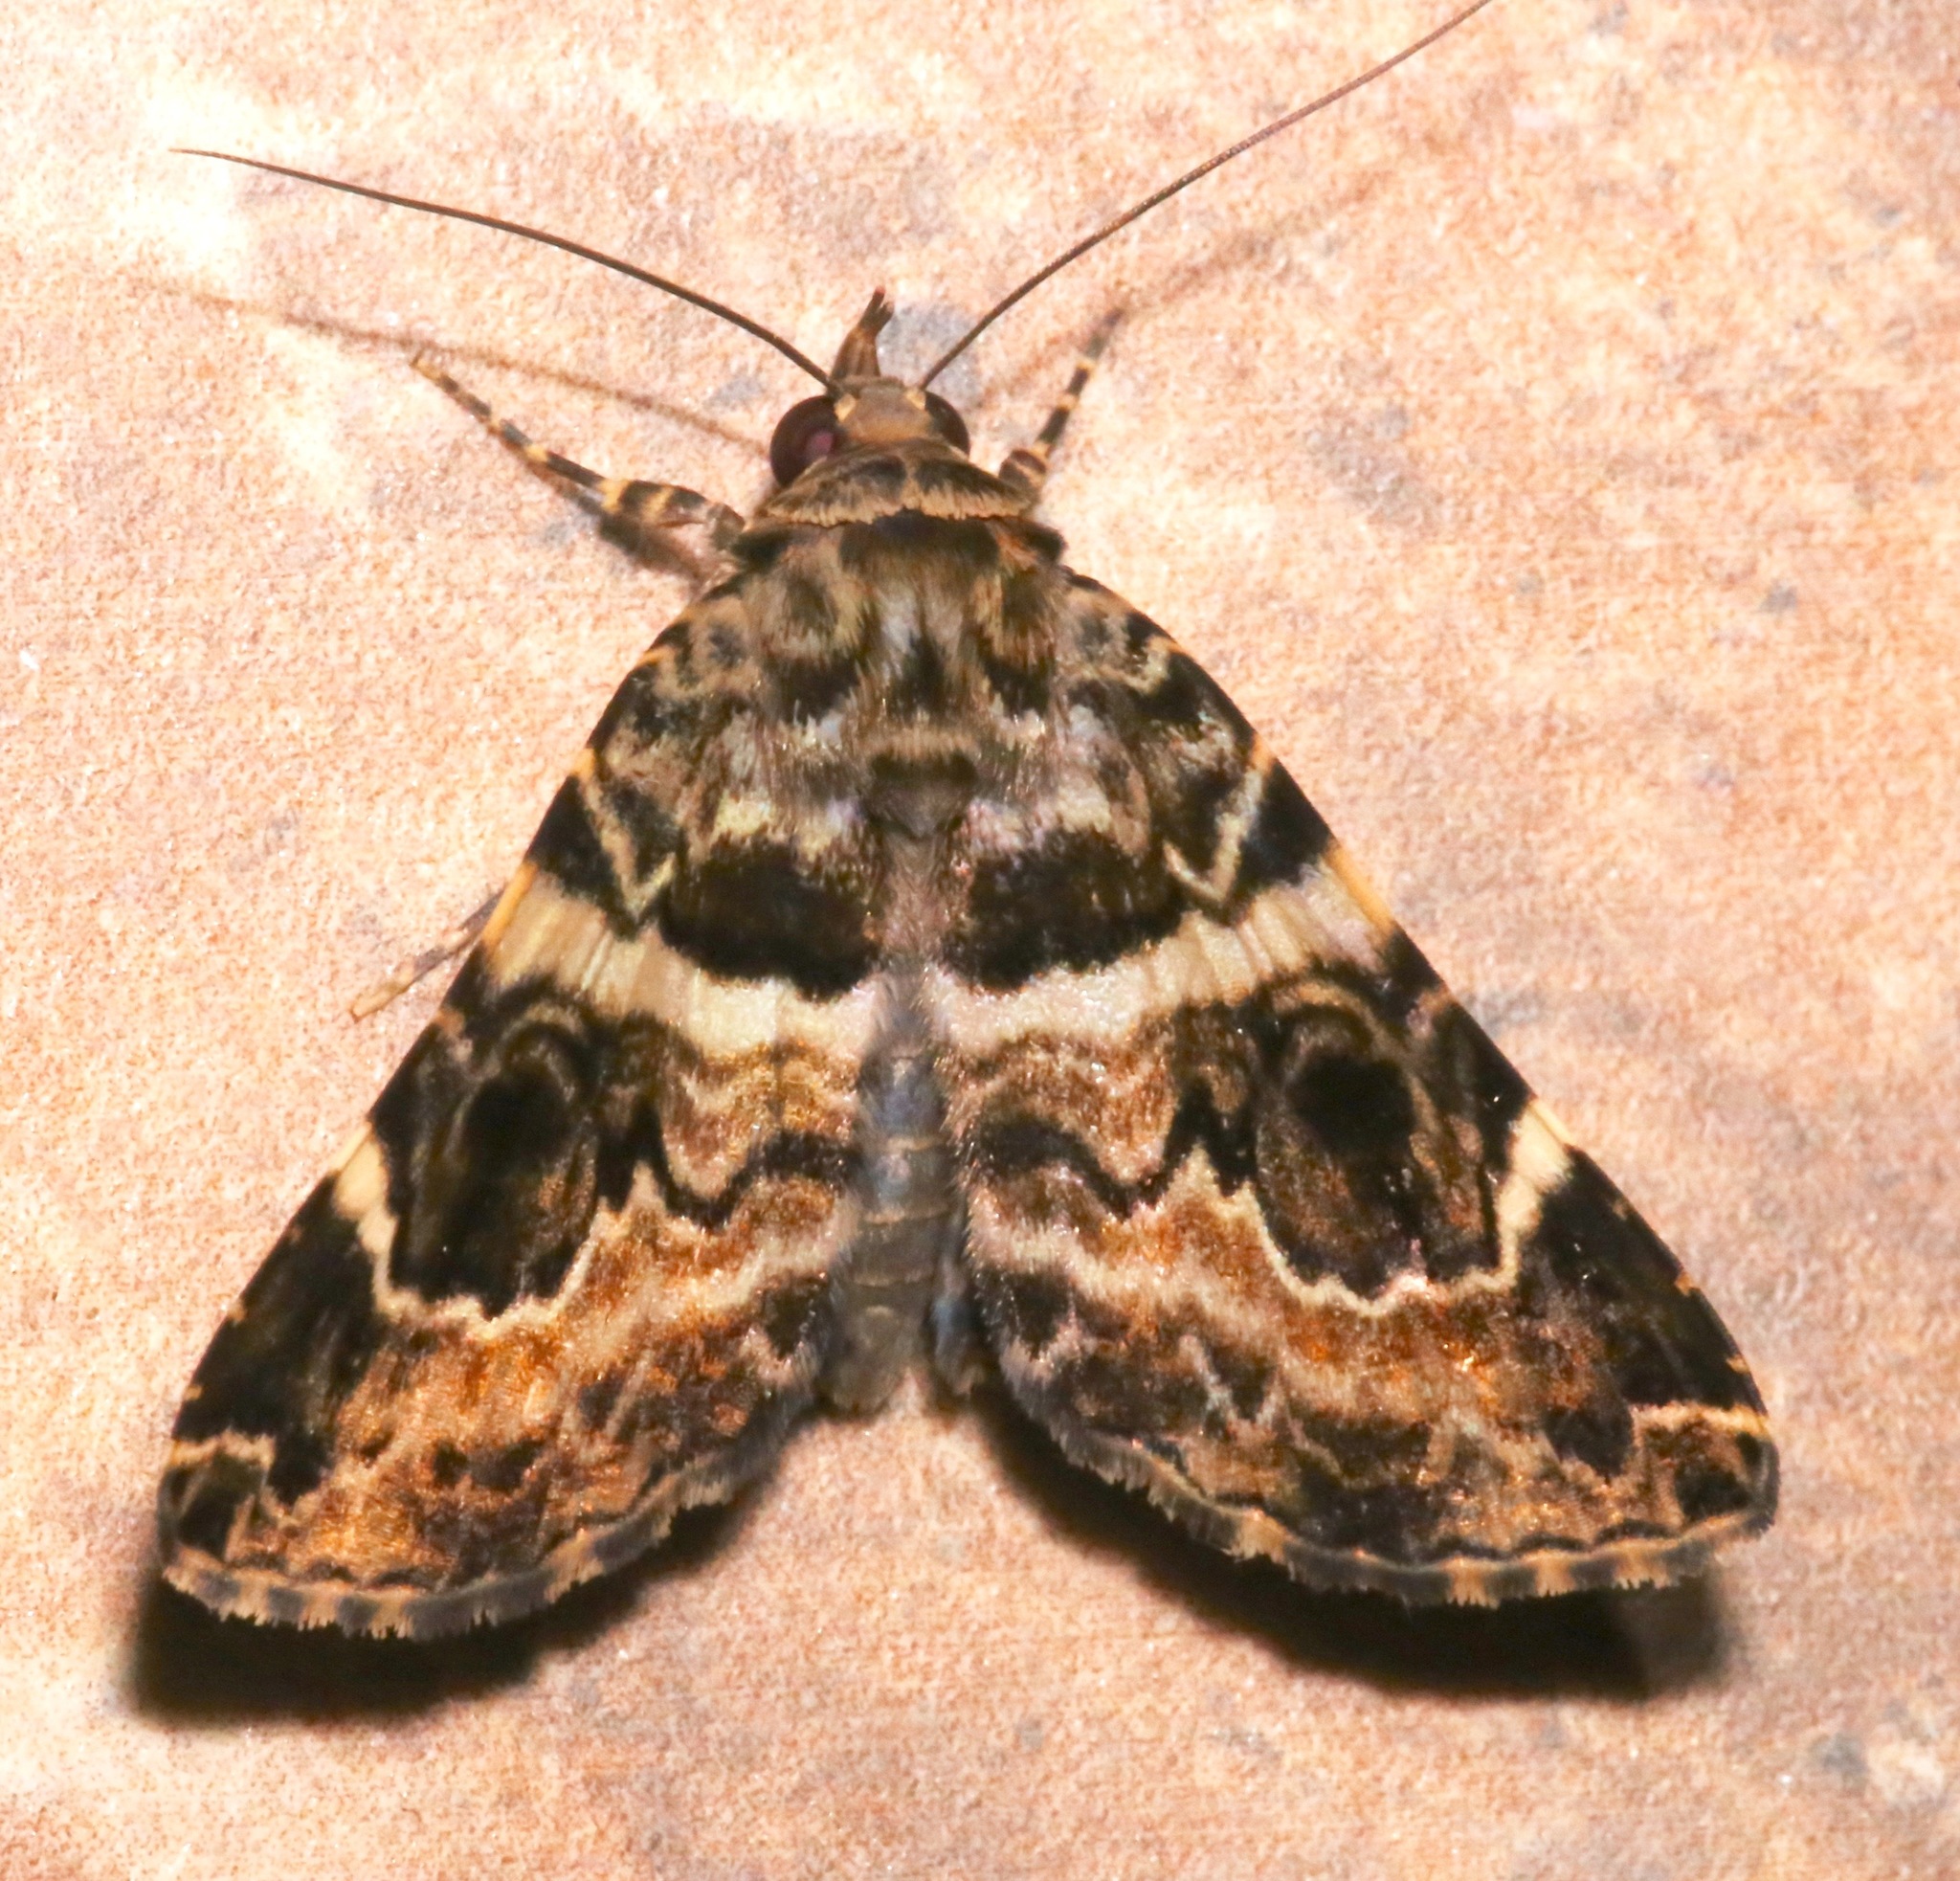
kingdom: Animalia
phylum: Arthropoda
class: Insecta
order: Lepidoptera
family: Erebidae
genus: Acolasis
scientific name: Acolasis tanais
